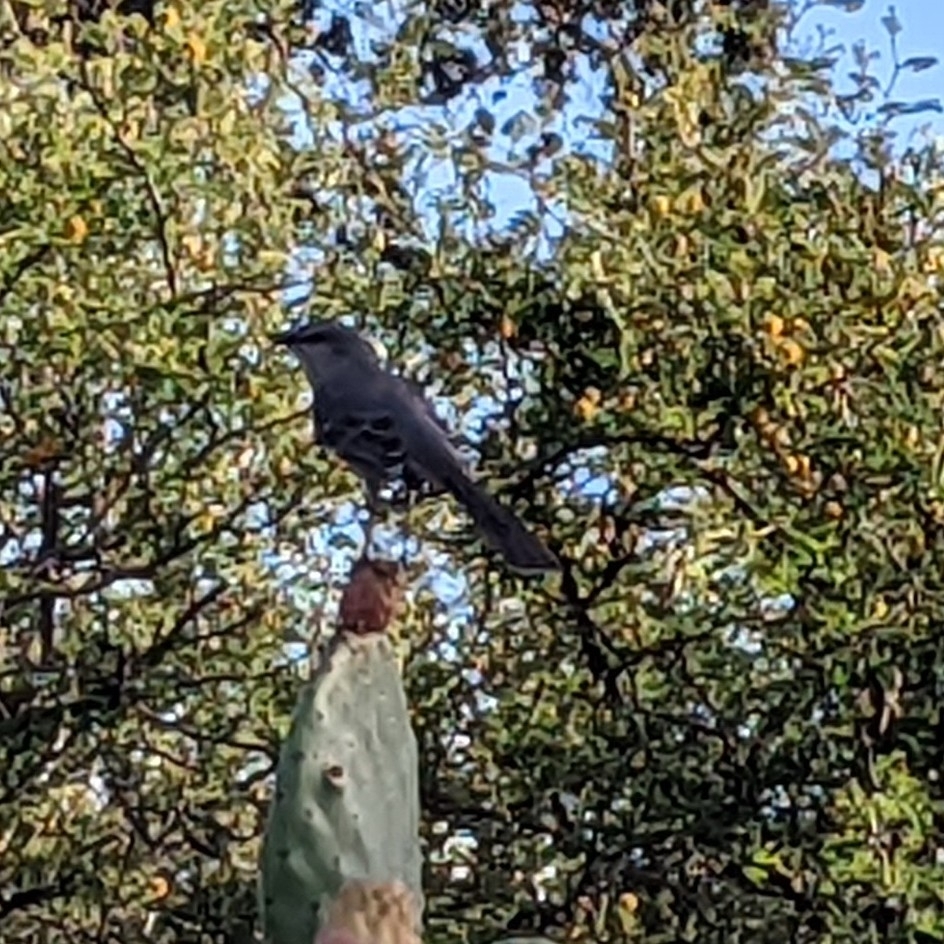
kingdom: Animalia
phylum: Chordata
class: Aves
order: Passeriformes
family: Mimidae
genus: Mimus
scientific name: Mimus polyglottos
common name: Northern mockingbird
